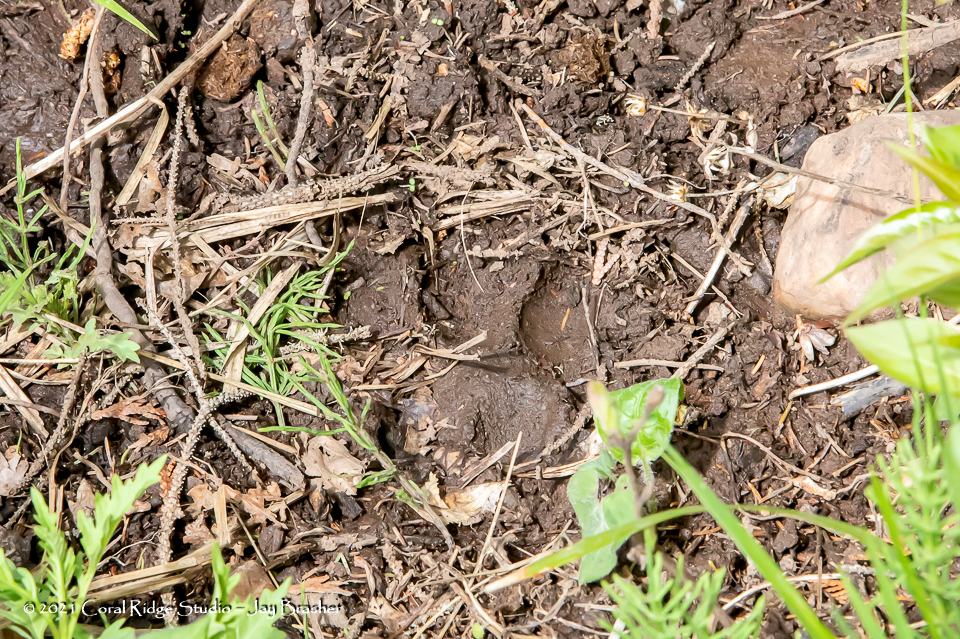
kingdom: Animalia
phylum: Chordata
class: Mammalia
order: Carnivora
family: Canidae
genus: Canis
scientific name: Canis lupus
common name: Gray wolf
